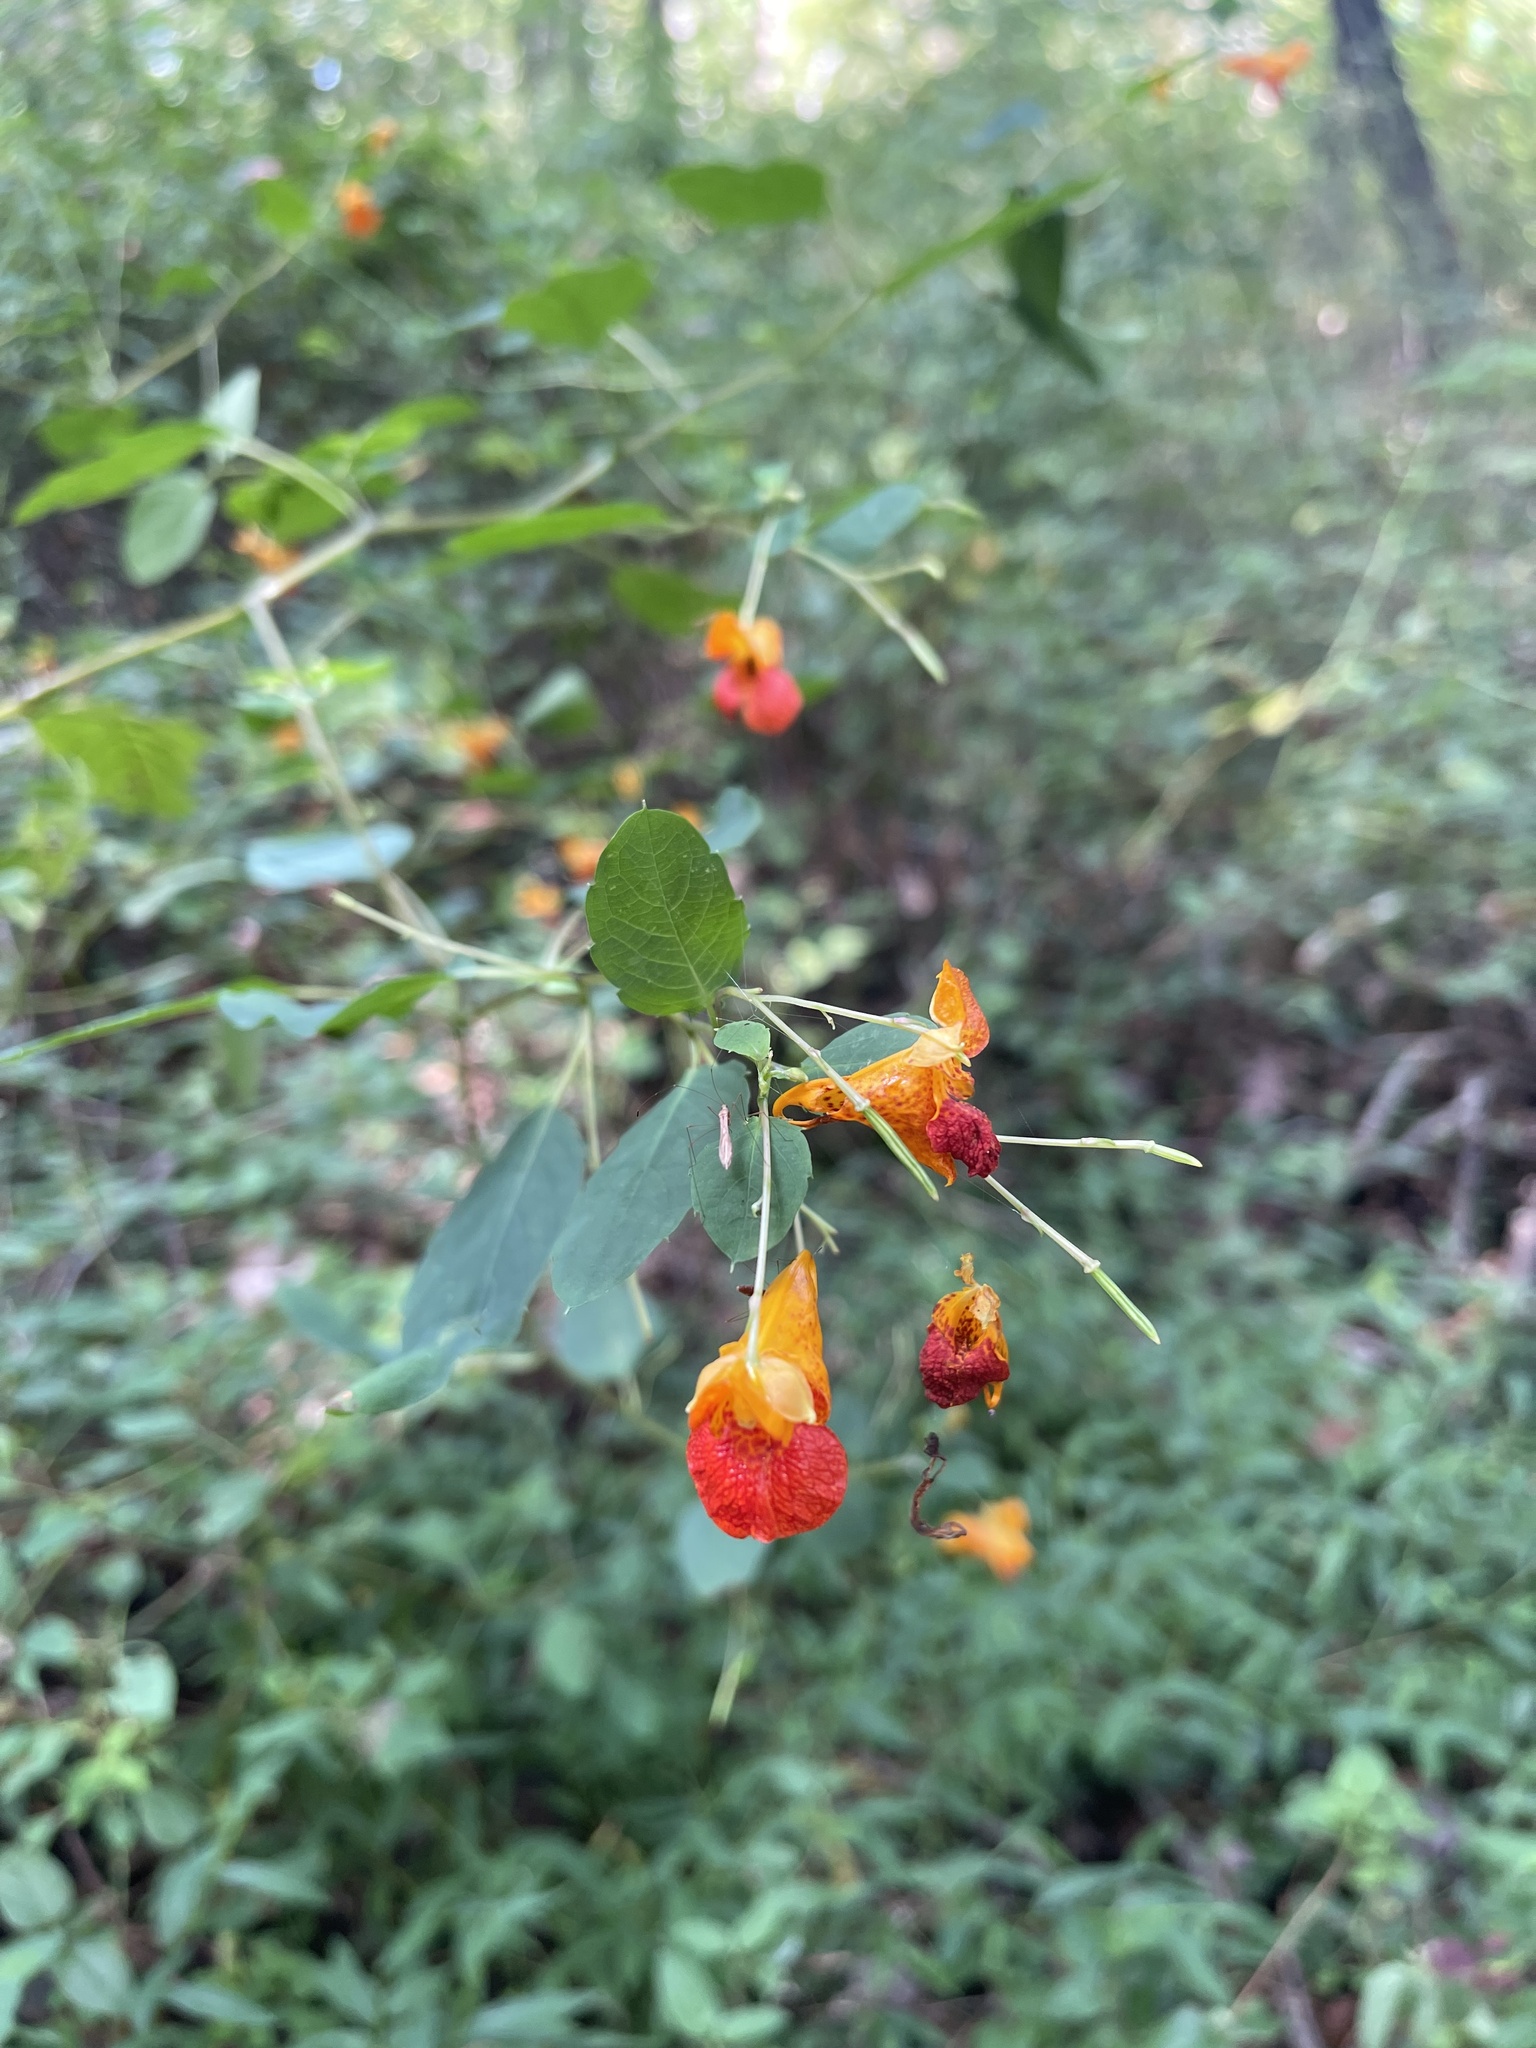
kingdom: Plantae
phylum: Tracheophyta
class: Magnoliopsida
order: Ericales
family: Balsaminaceae
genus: Impatiens
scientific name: Impatiens capensis
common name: Orange balsam
